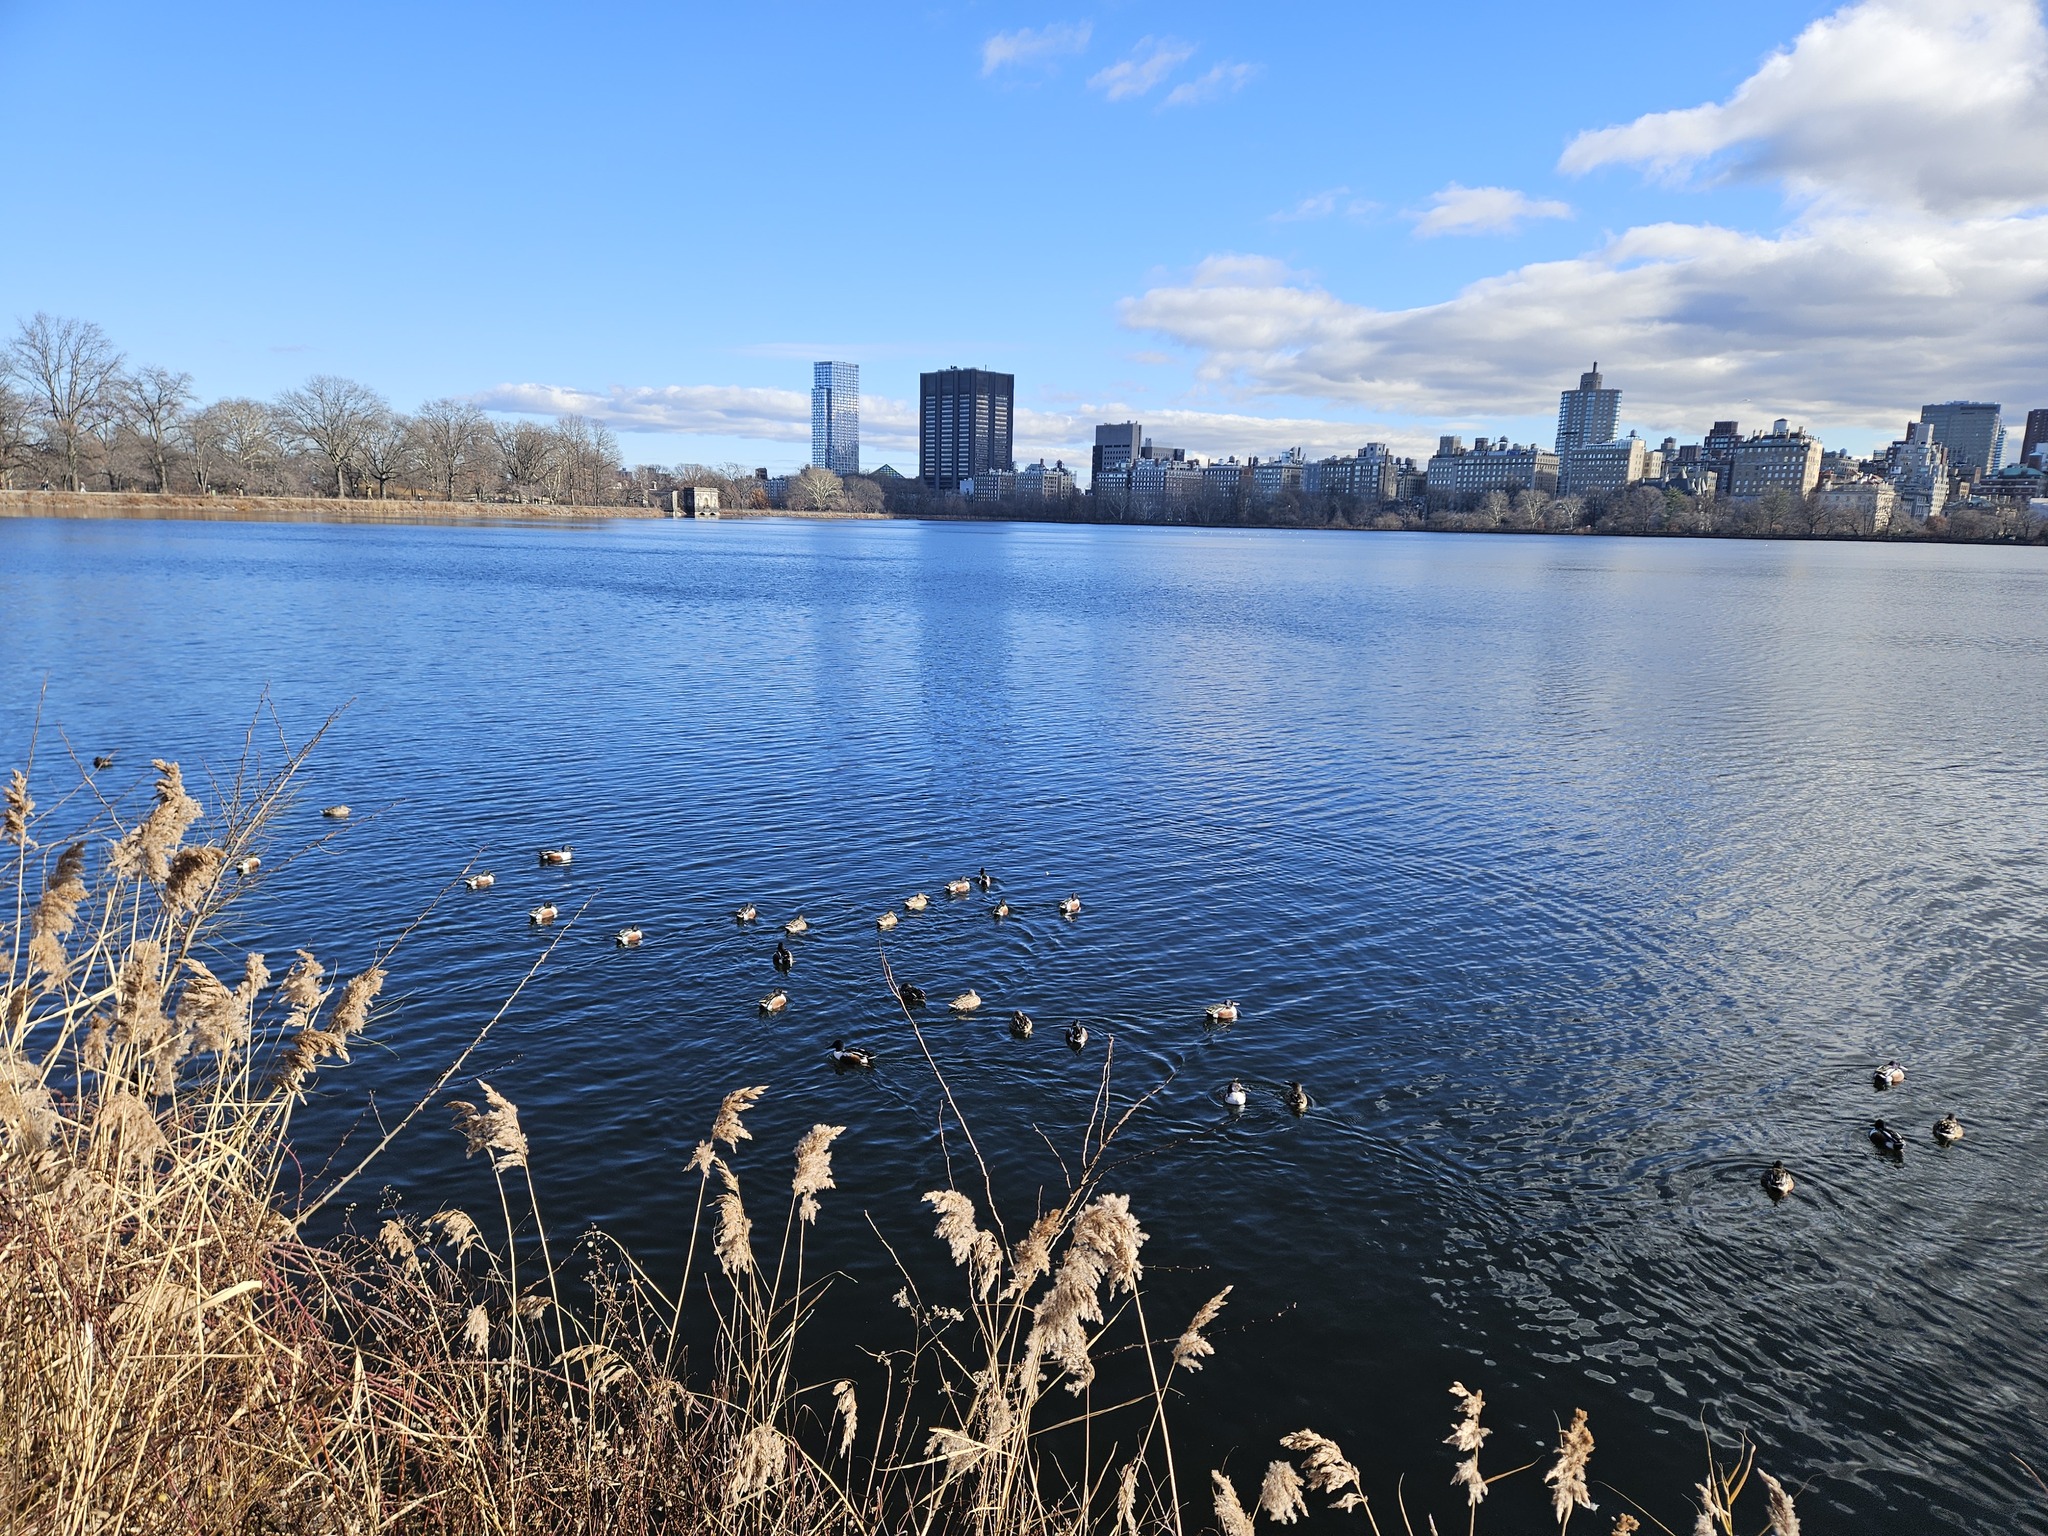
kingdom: Animalia
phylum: Chordata
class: Aves
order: Anseriformes
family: Anatidae
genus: Spatula
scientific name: Spatula clypeata
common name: Northern shoveler
